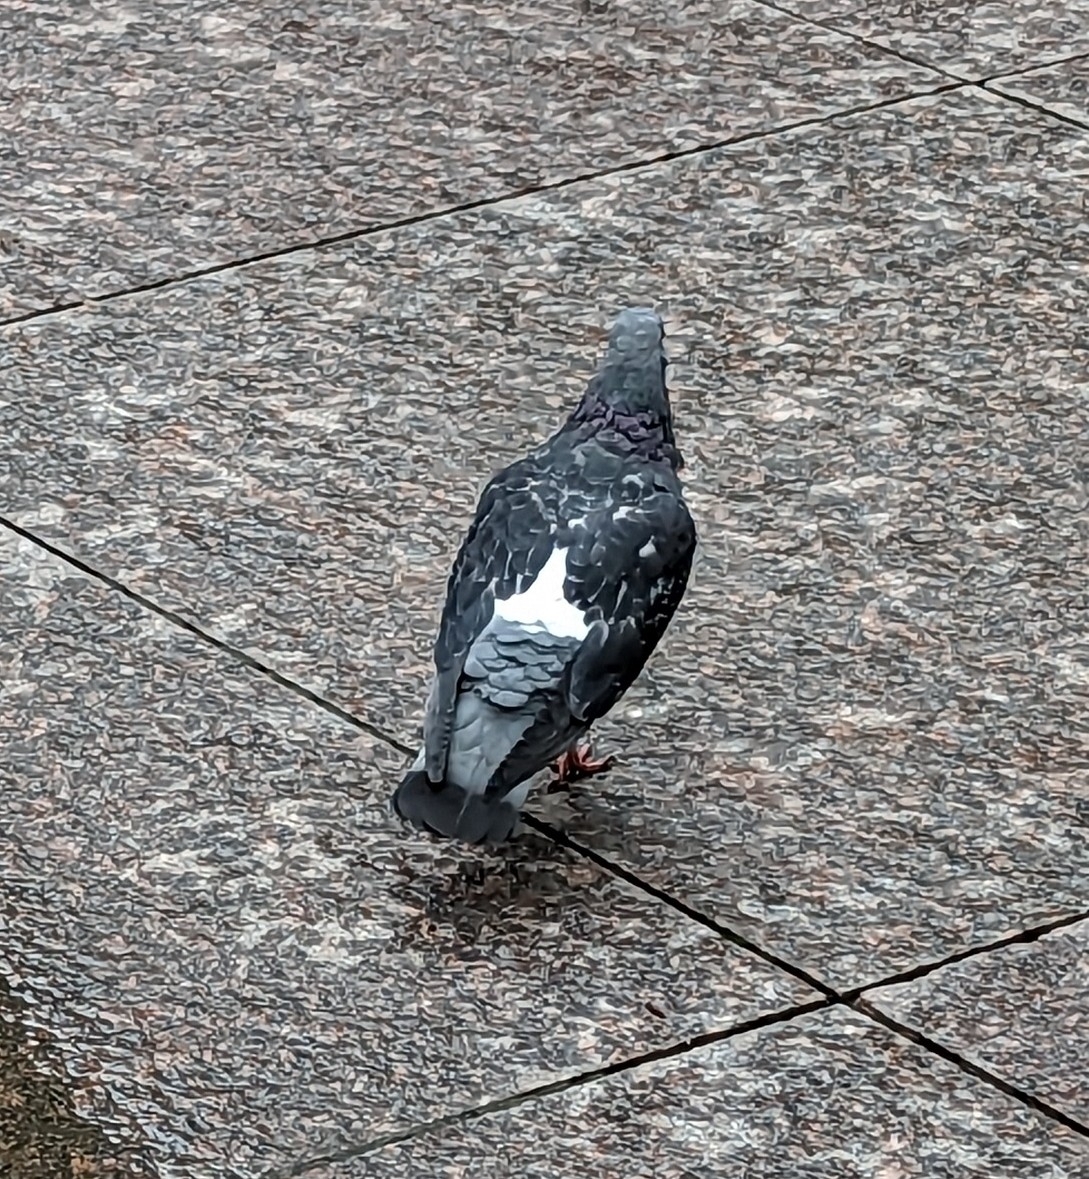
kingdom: Animalia
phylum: Chordata
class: Aves
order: Columbiformes
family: Columbidae
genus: Columba
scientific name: Columba livia
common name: Rock pigeon
